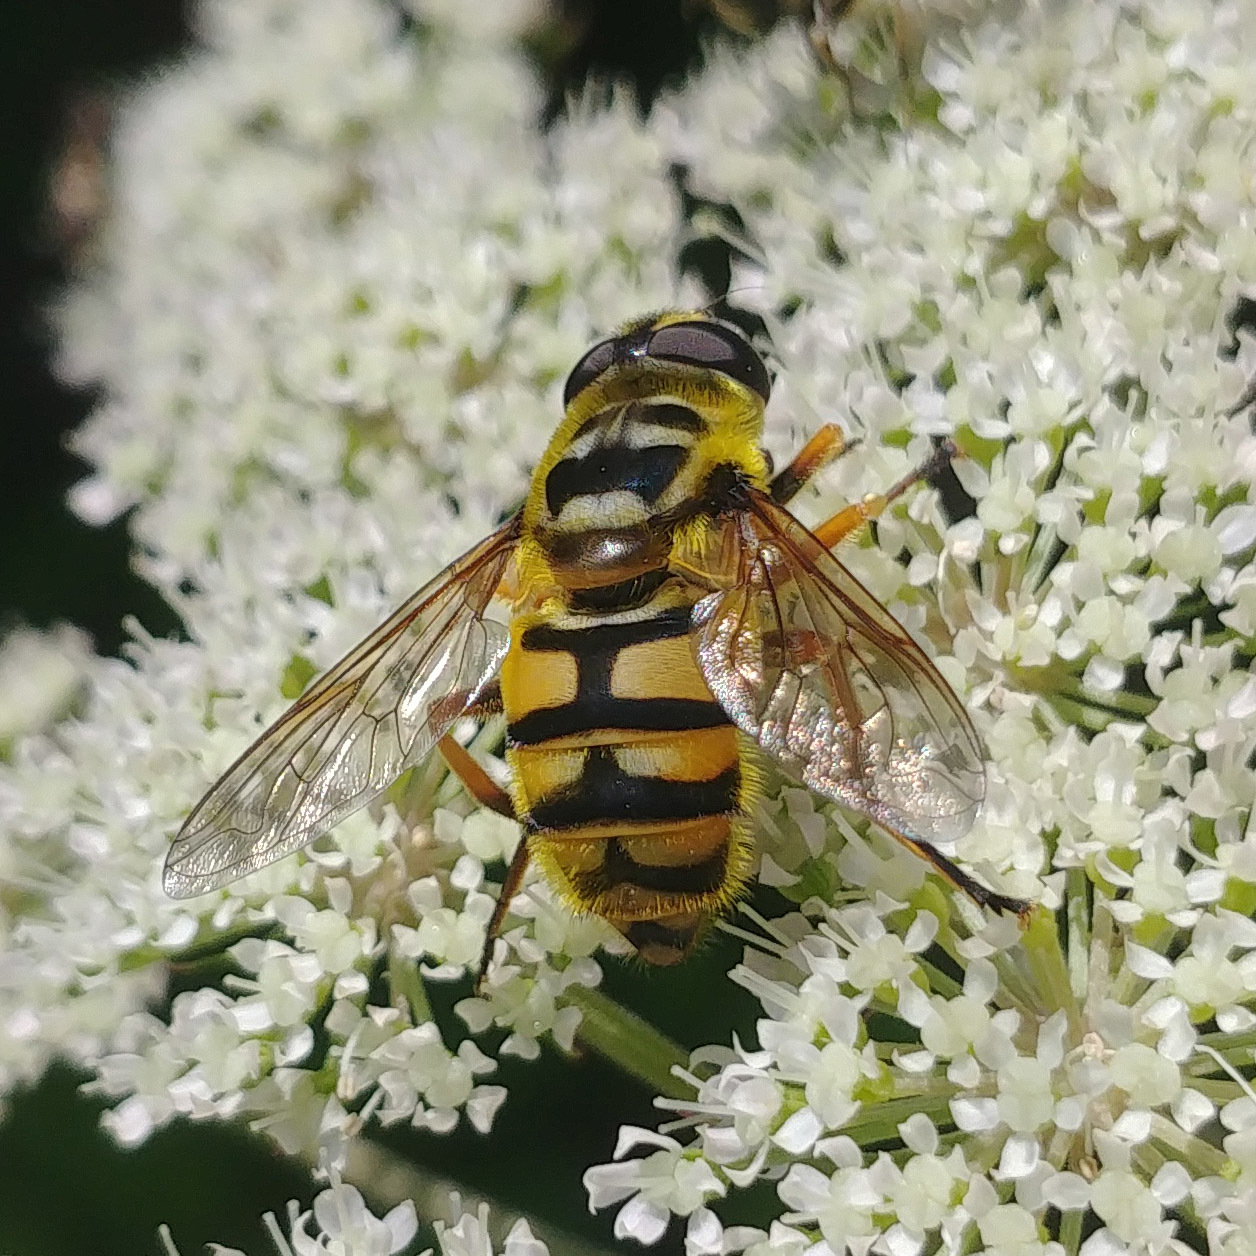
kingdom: Animalia
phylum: Arthropoda
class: Insecta
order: Diptera
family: Syrphidae
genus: Myathropa
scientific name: Myathropa florea
